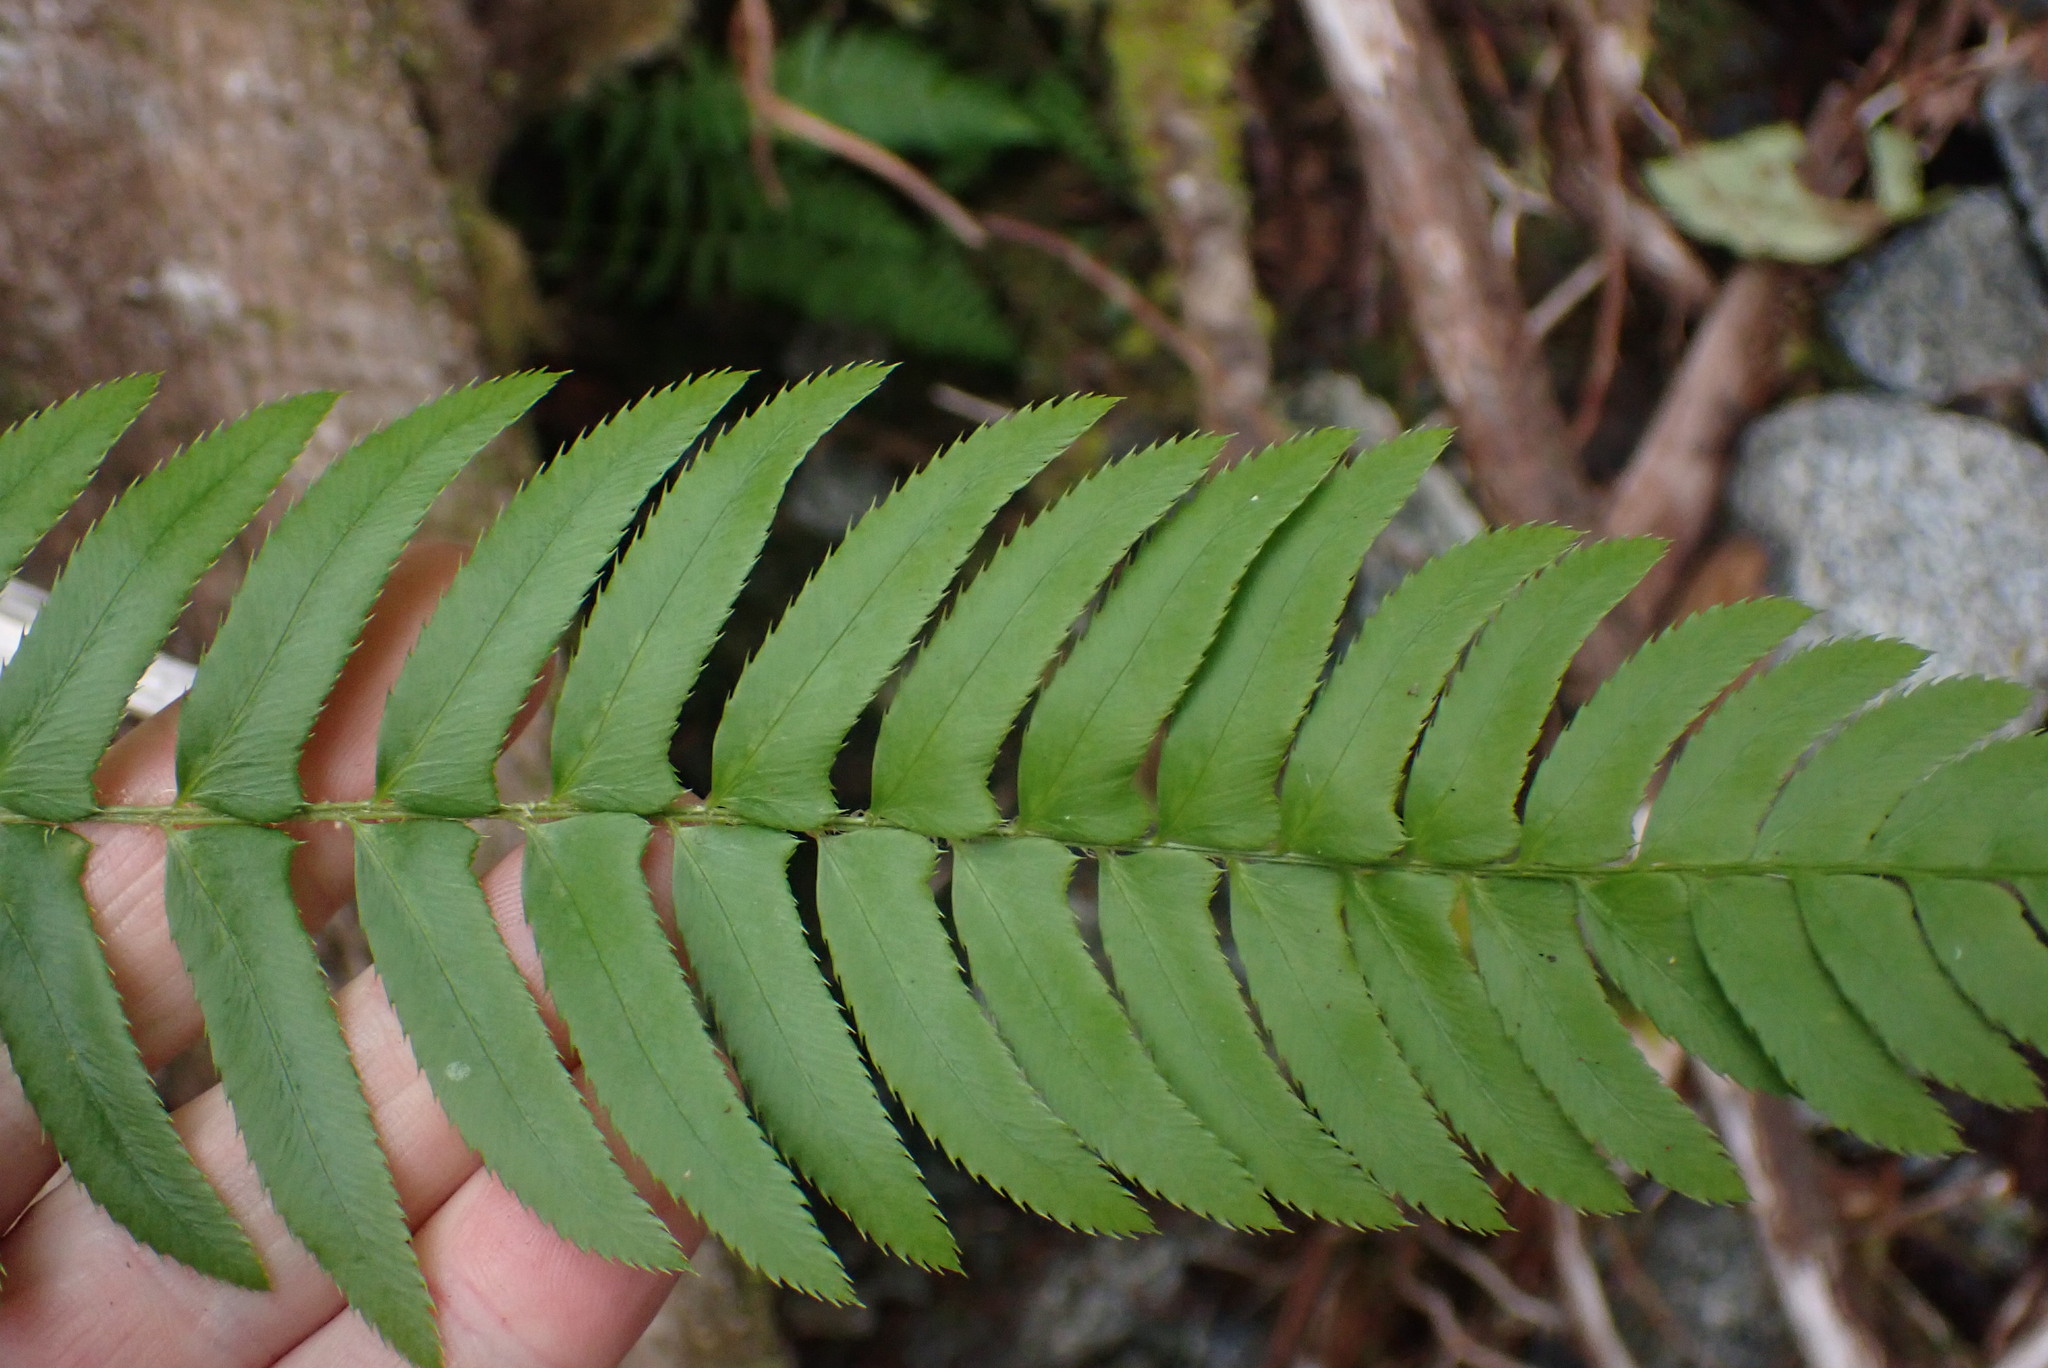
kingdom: Plantae
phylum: Tracheophyta
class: Polypodiopsida
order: Polypodiales
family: Dryopteridaceae
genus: Polystichum
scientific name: Polystichum munitum
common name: Western sword-fern
